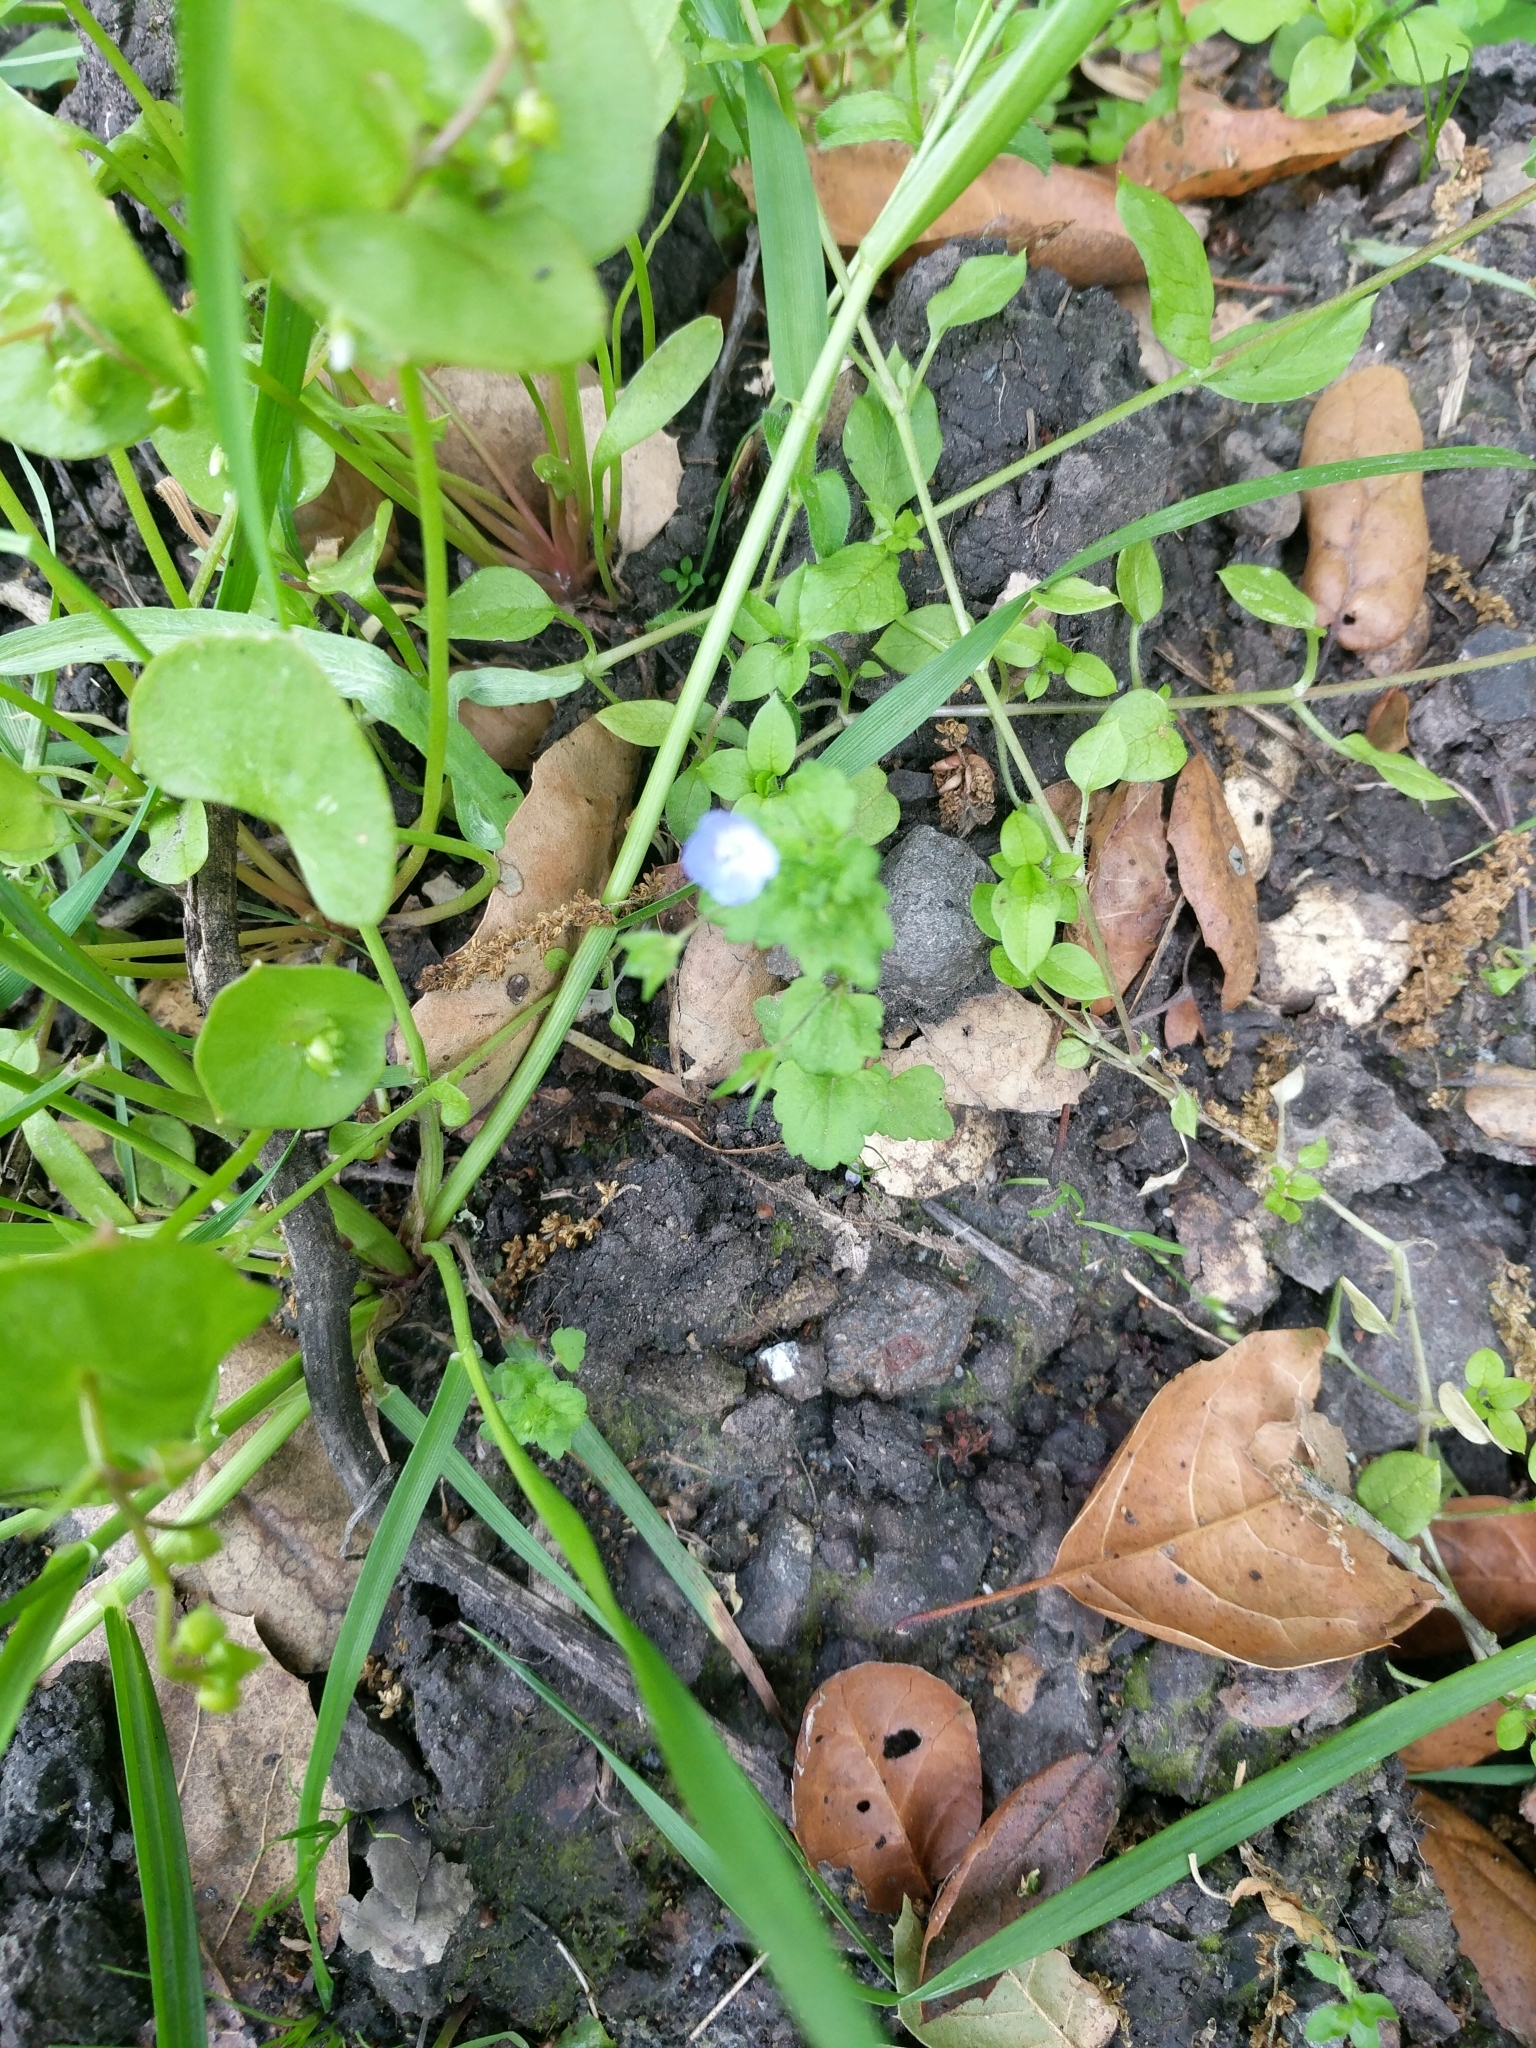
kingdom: Plantae
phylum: Tracheophyta
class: Magnoliopsida
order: Lamiales
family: Plantaginaceae
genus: Veronica
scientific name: Veronica persica
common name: Common field-speedwell
